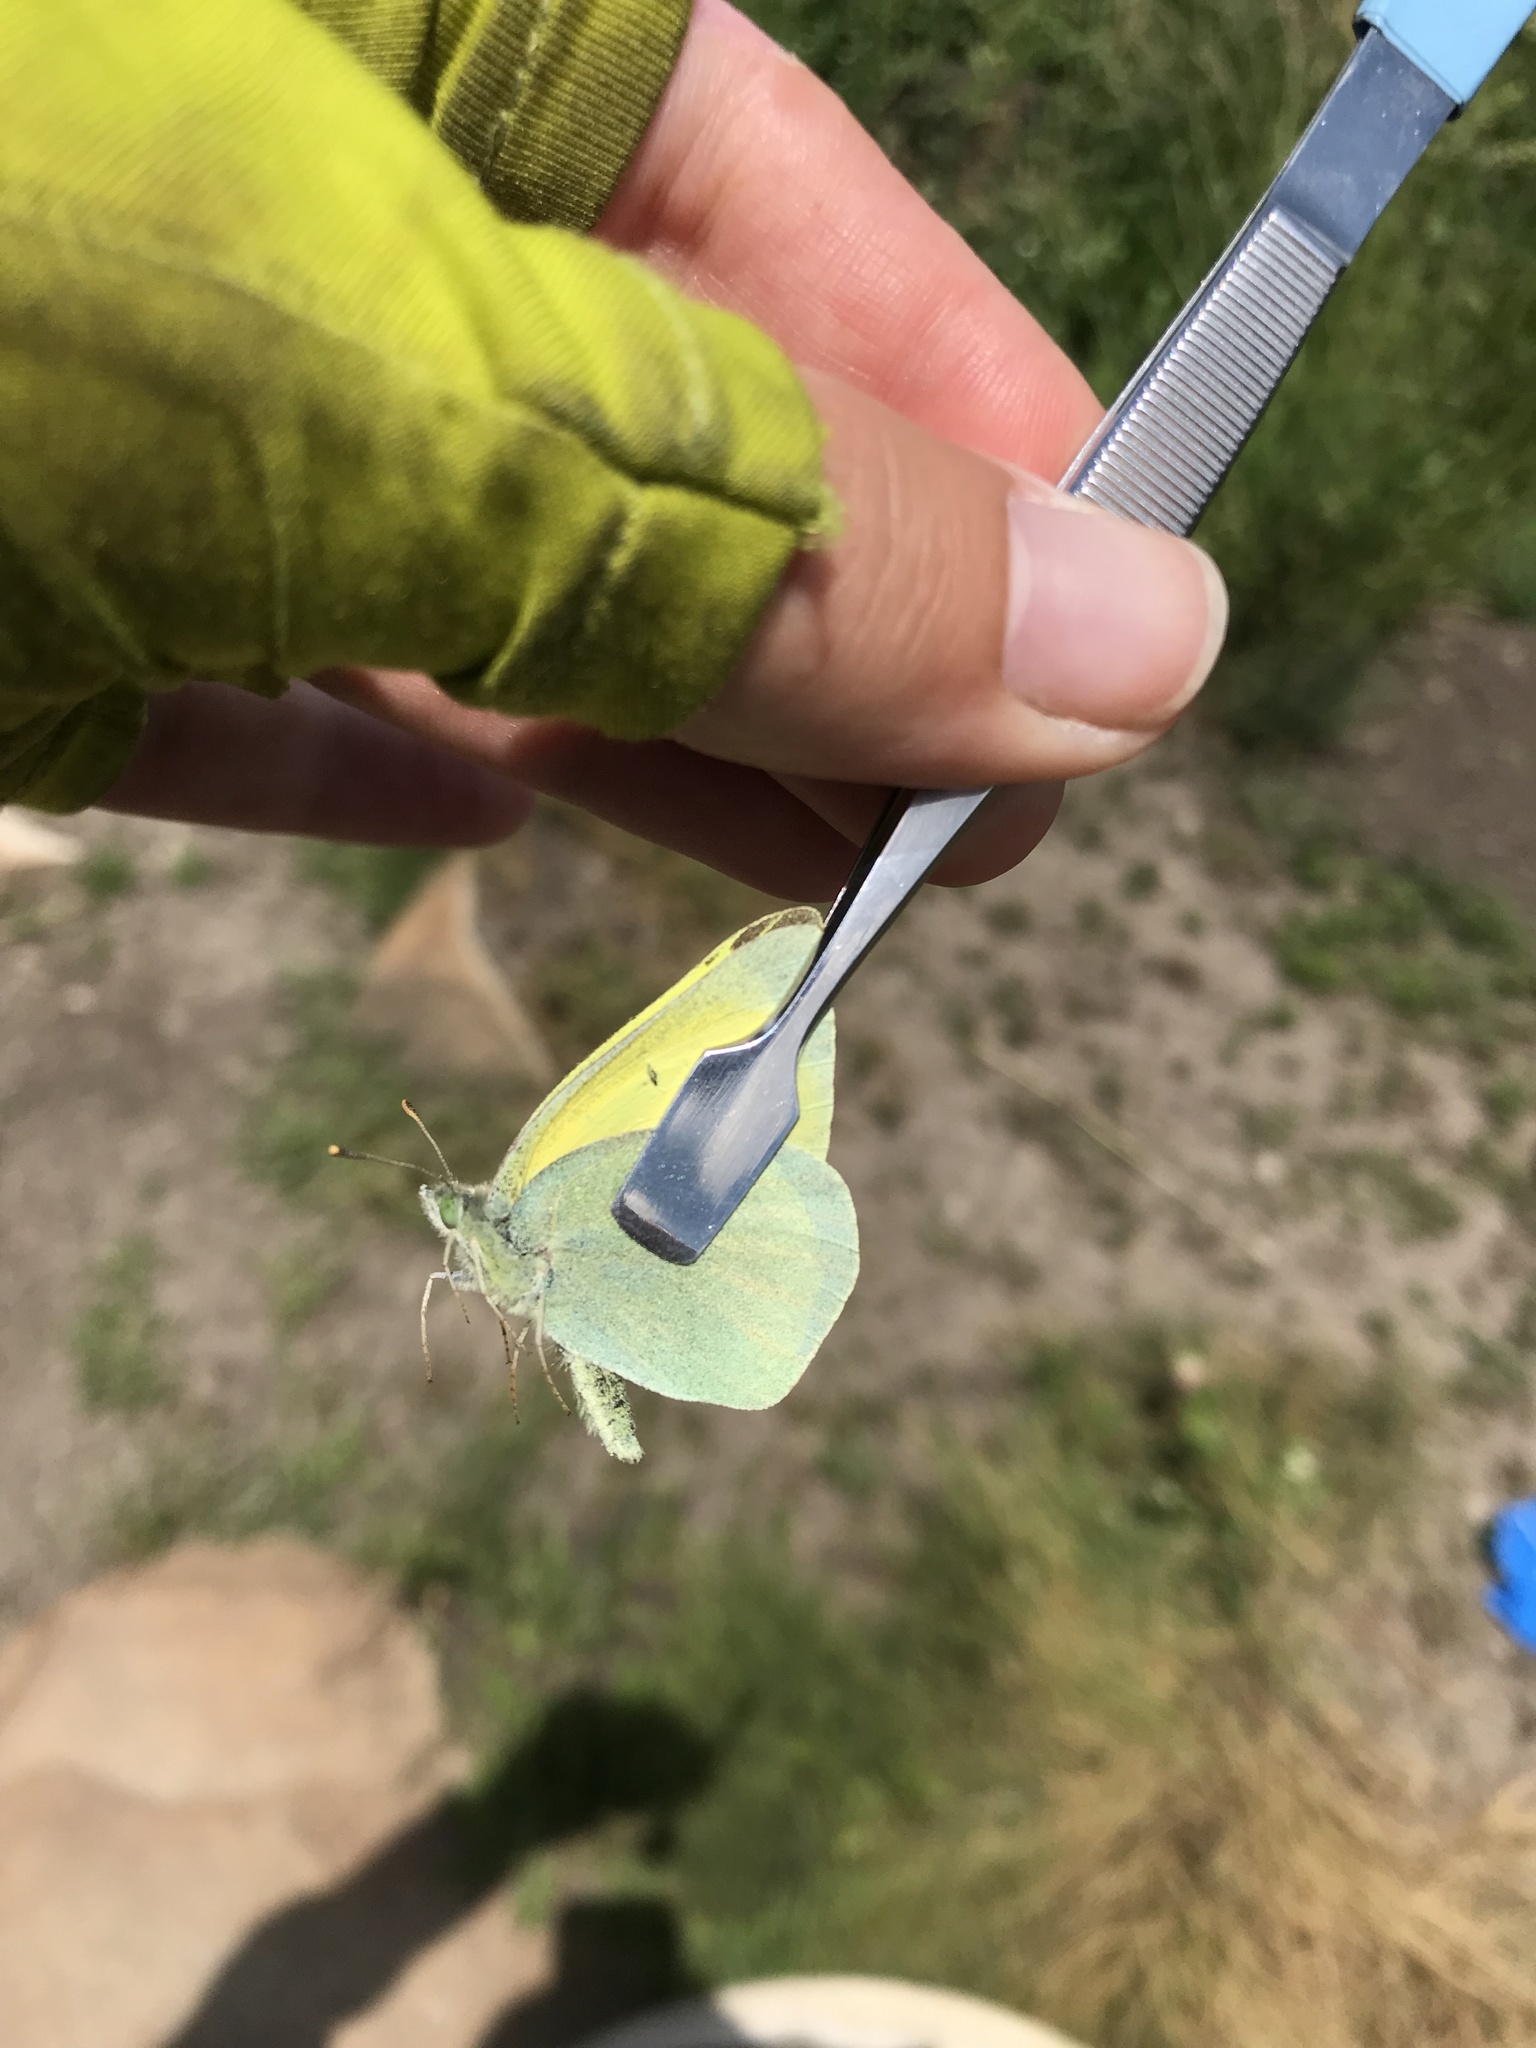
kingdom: Animalia
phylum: Arthropoda
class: Insecta
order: Lepidoptera
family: Pieridae
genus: Colias
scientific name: Colias alexandra
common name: Alexandra sulphur
